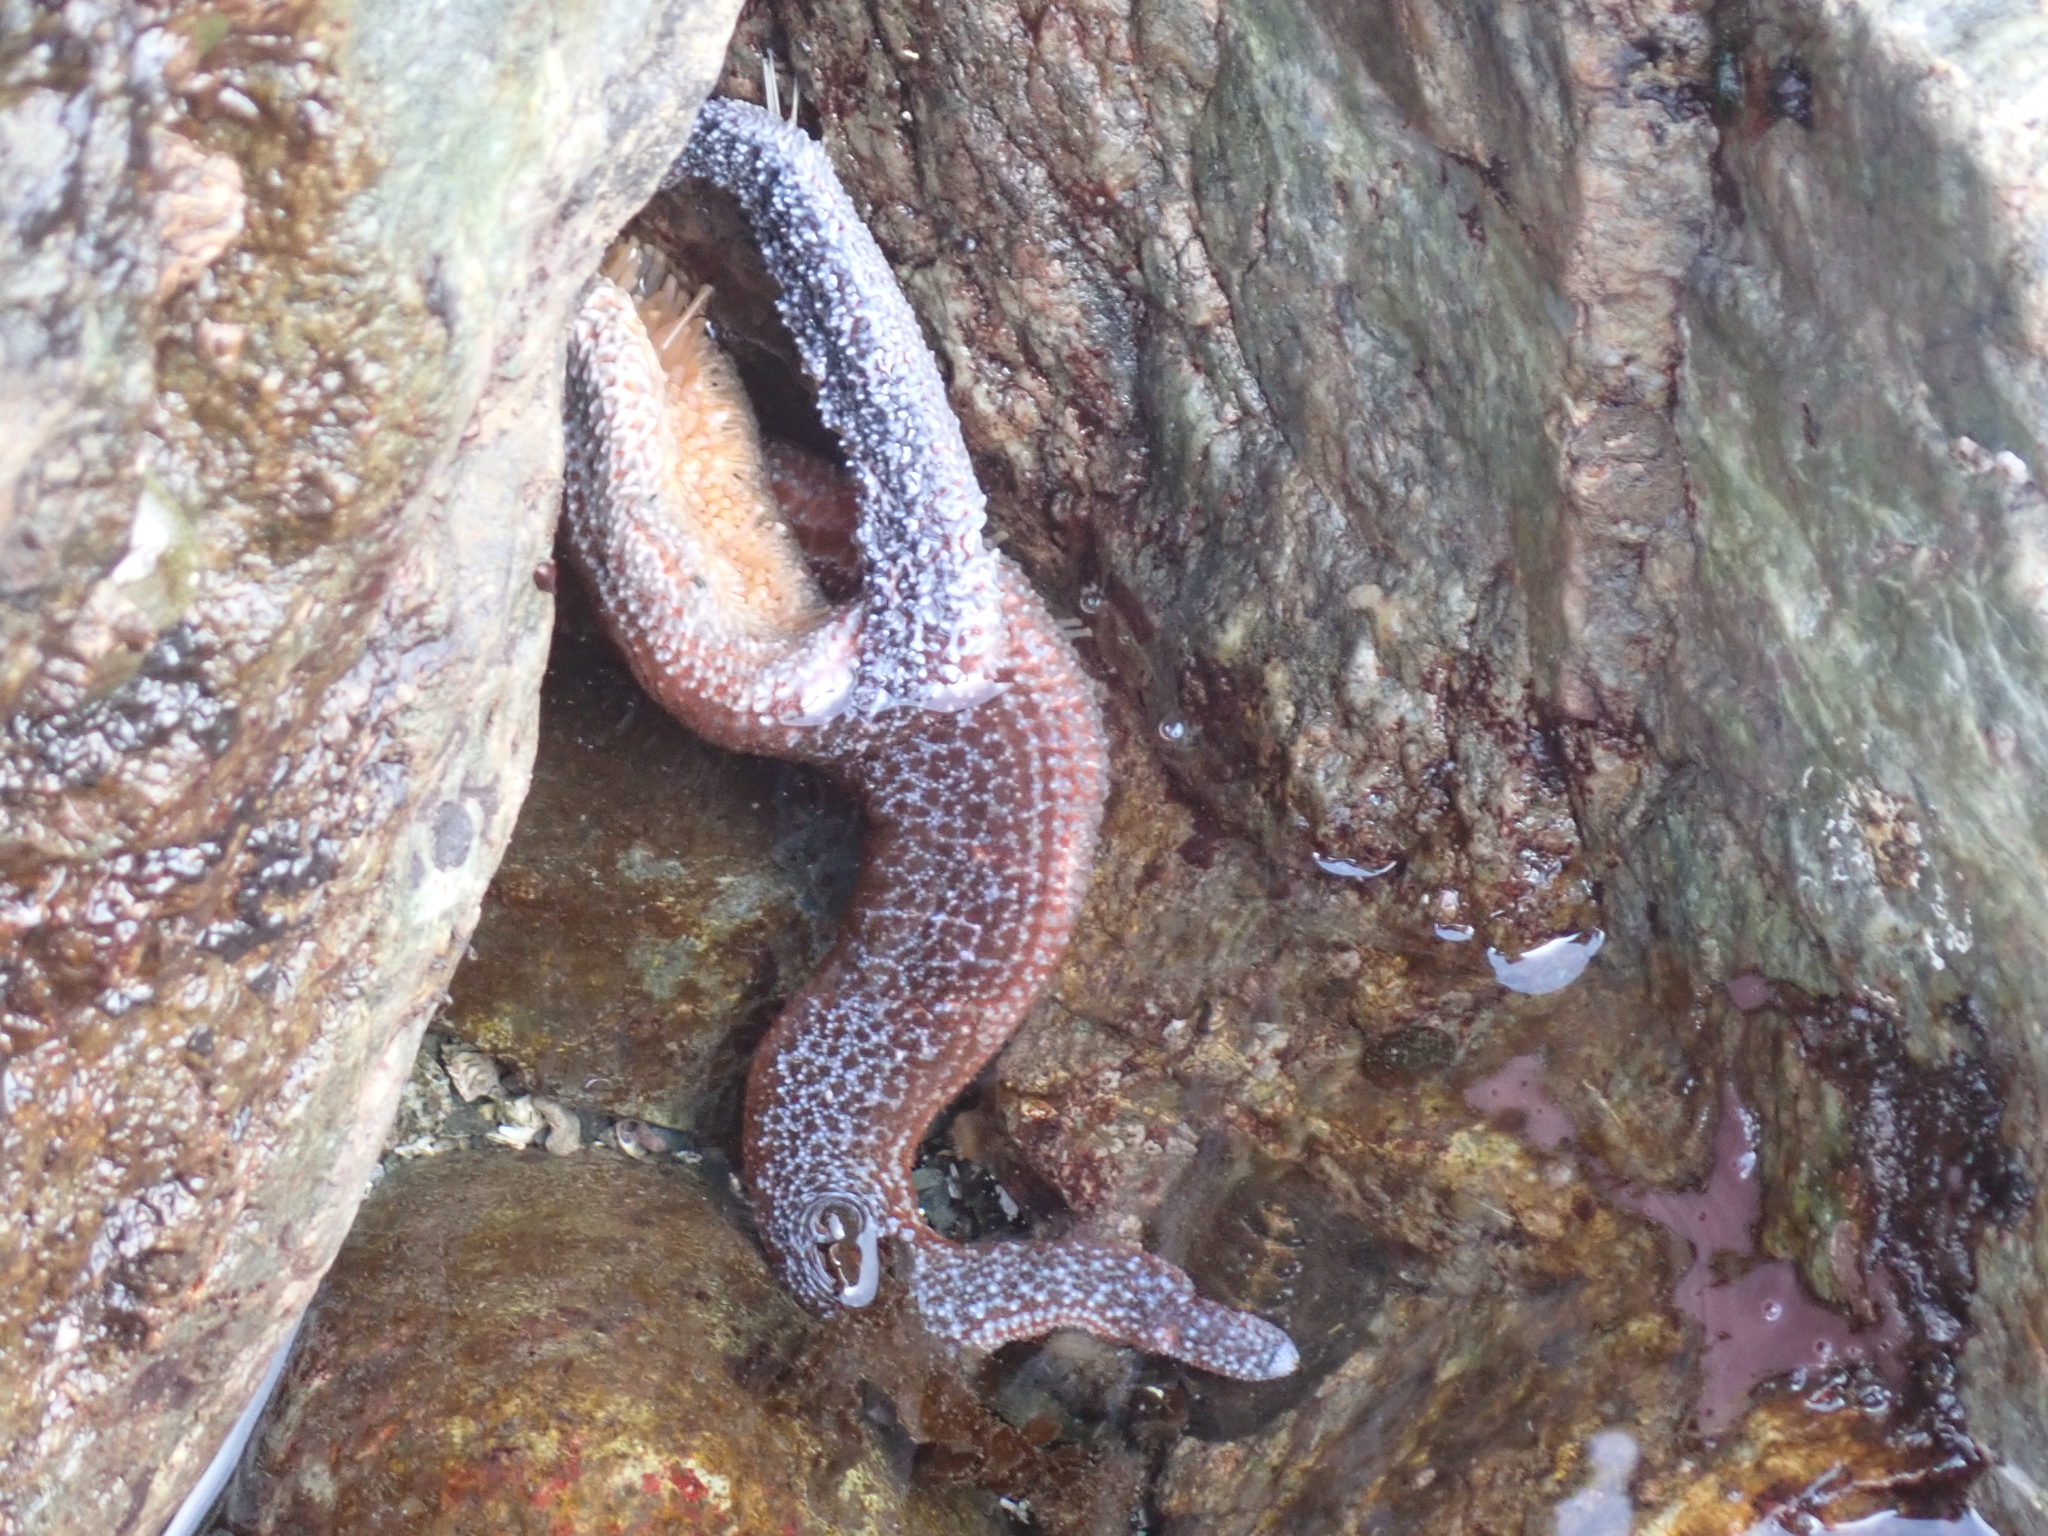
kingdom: Animalia
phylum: Echinodermata
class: Asteroidea
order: Forcipulatida
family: Asteriidae
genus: Evasterias
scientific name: Evasterias troschelii
